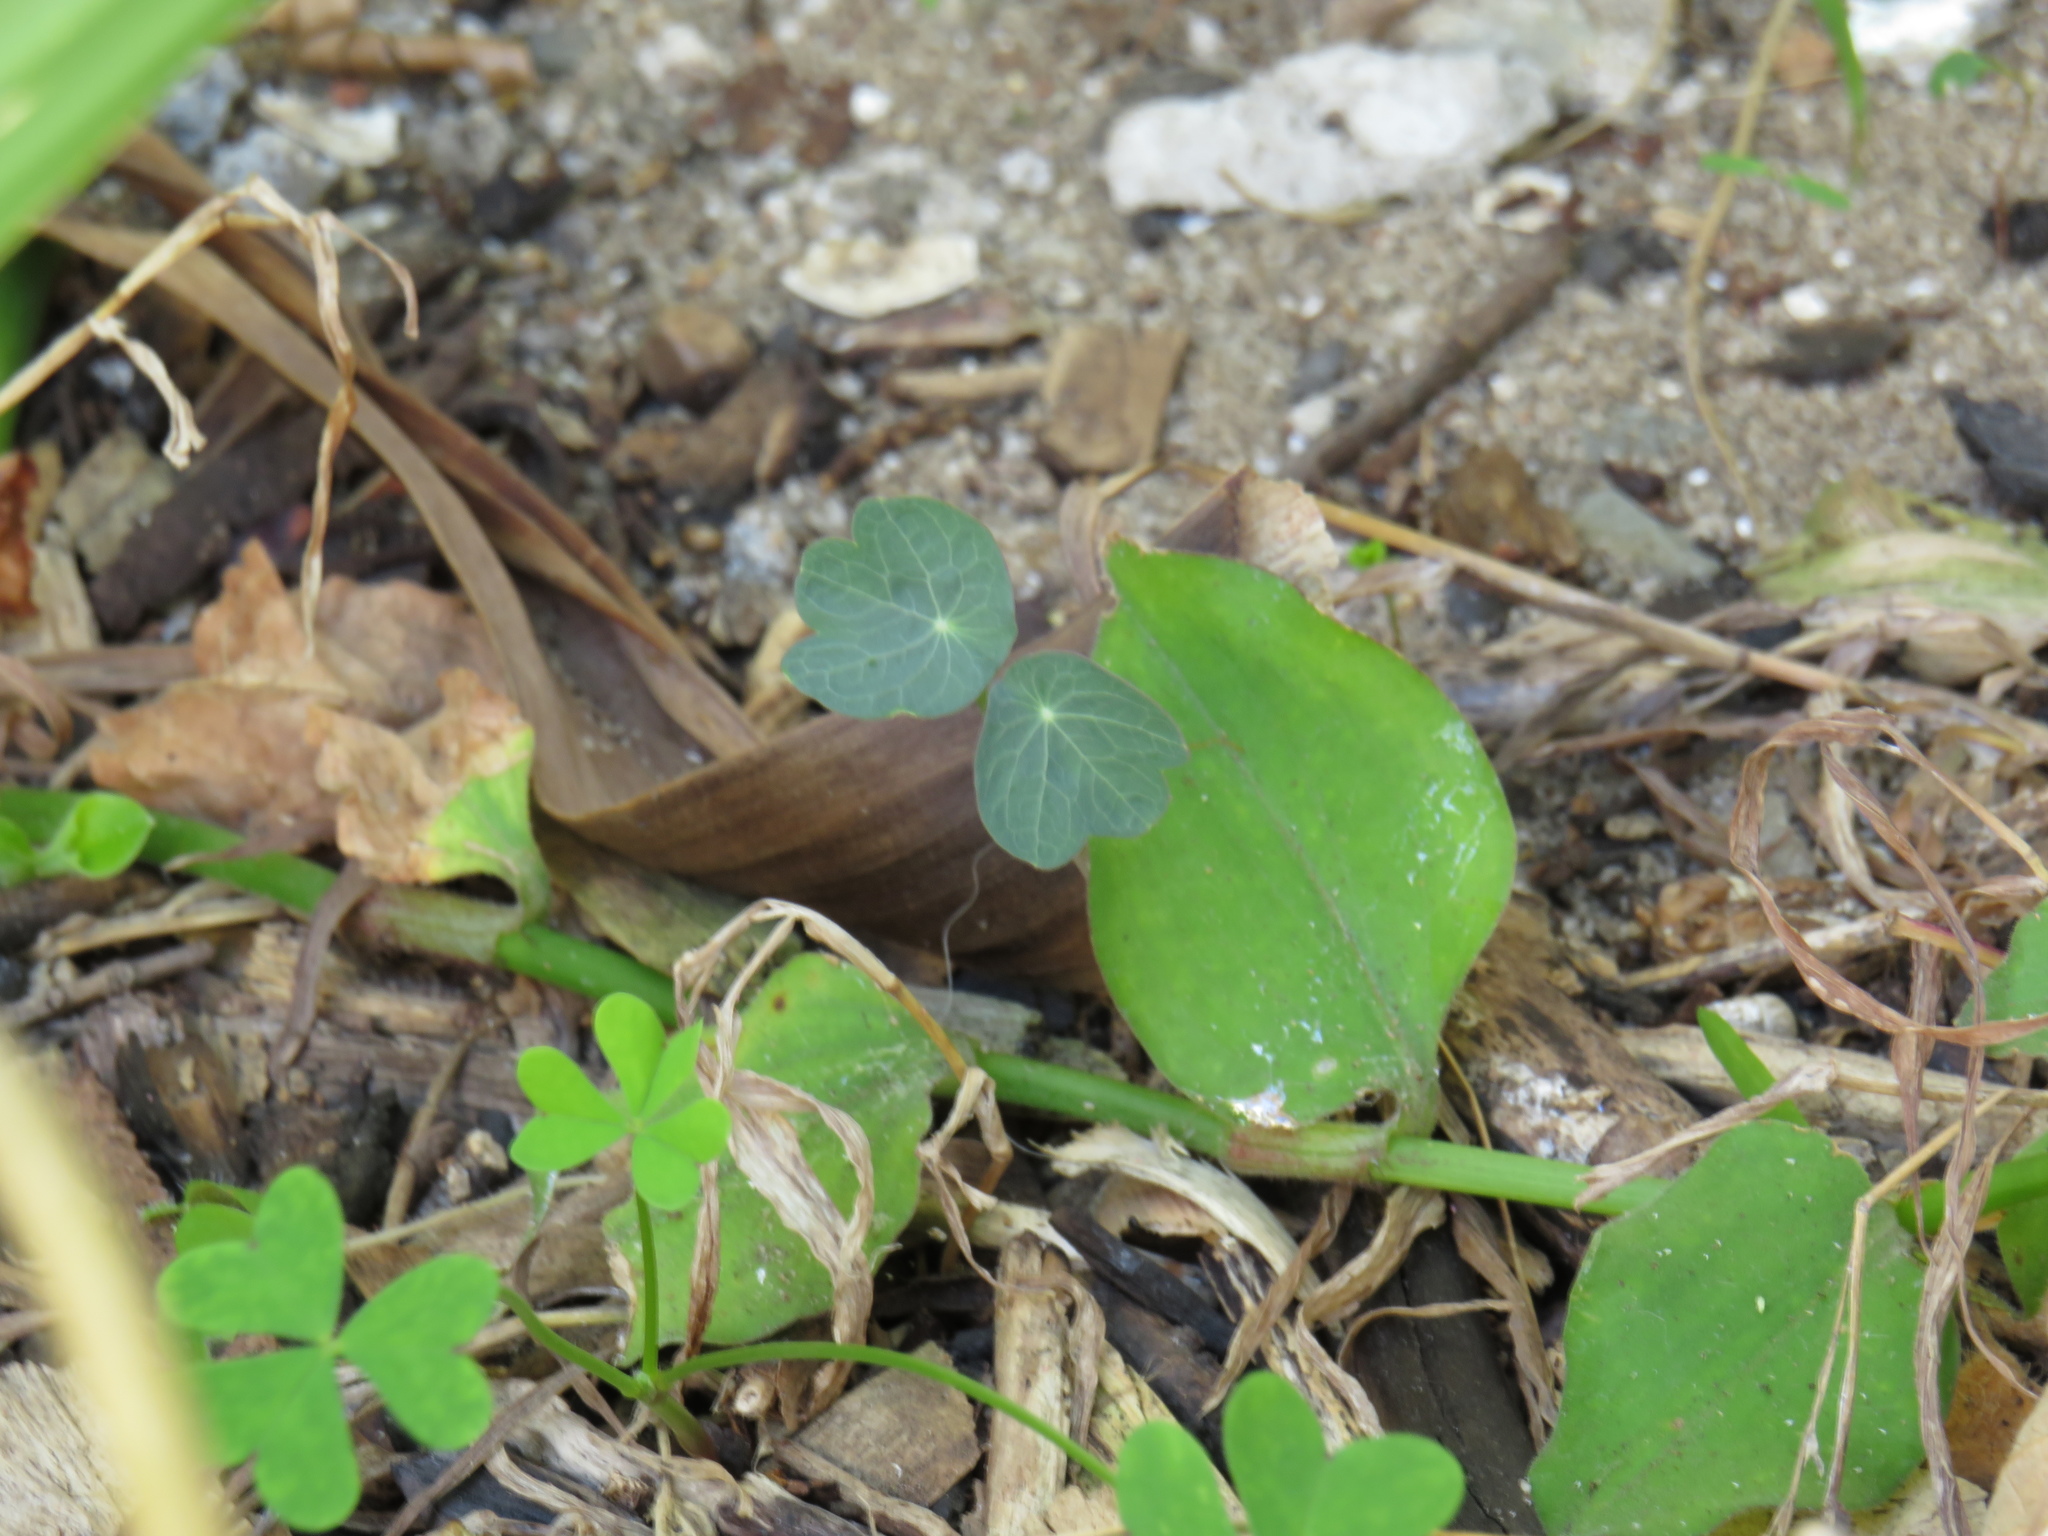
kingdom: Plantae
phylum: Tracheophyta
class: Magnoliopsida
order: Brassicales
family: Tropaeolaceae
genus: Tropaeolum
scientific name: Tropaeolum majus
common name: Nasturtium
